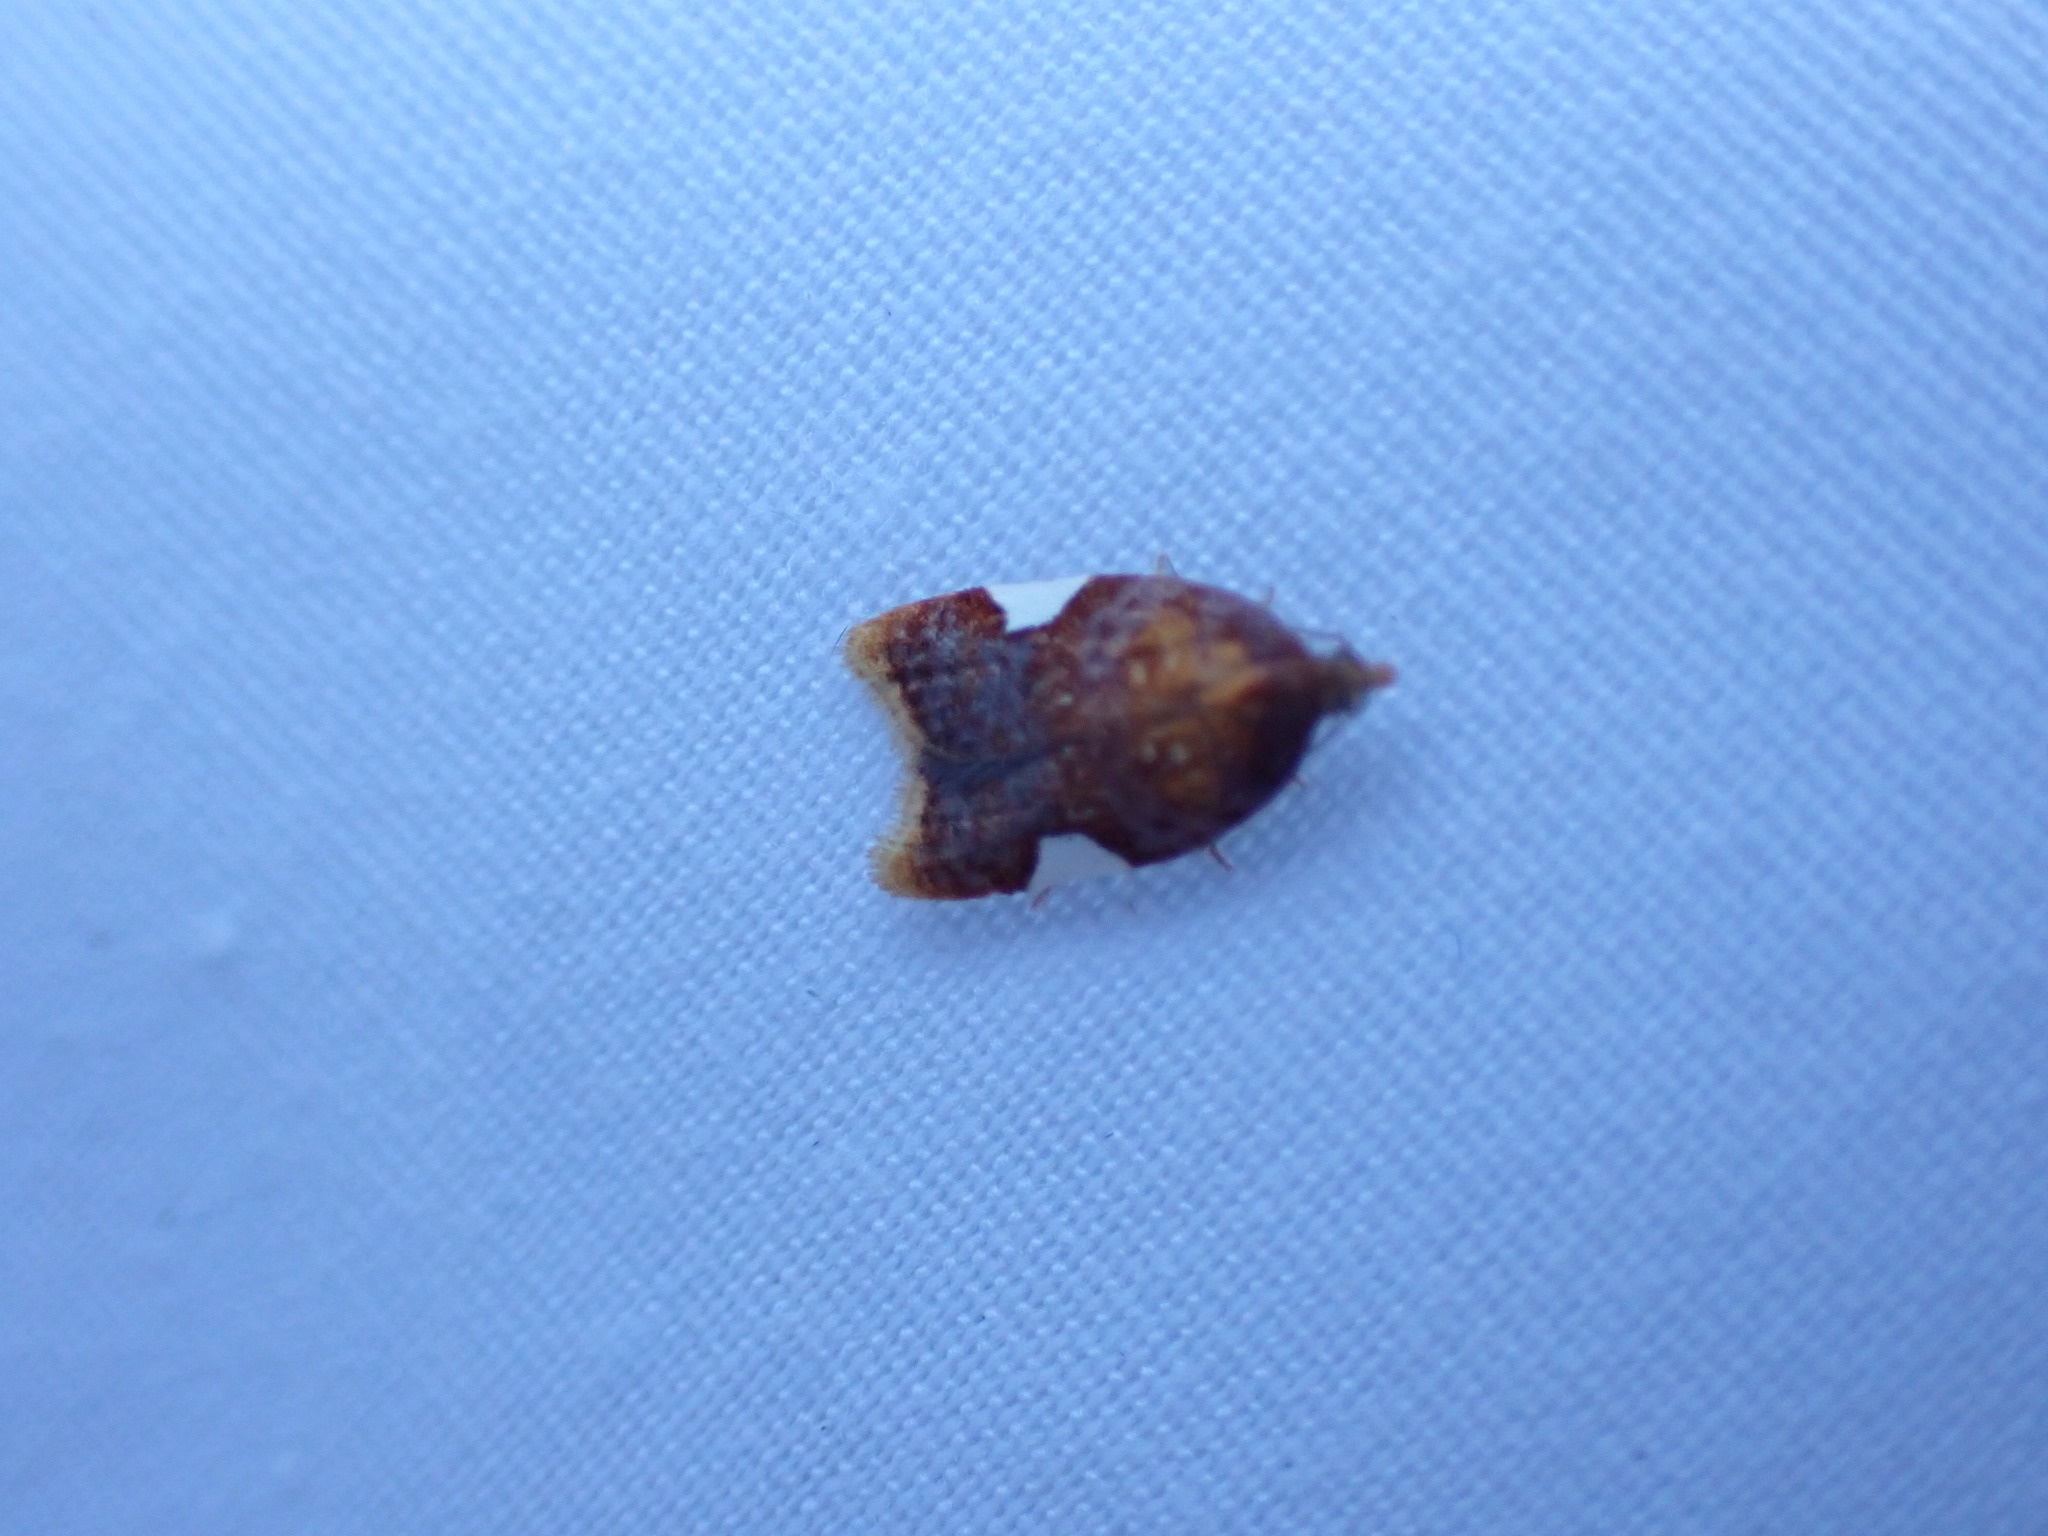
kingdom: Animalia
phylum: Arthropoda
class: Insecta
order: Lepidoptera
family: Tortricidae
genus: Acleris
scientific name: Acleris holmiana
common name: Golden leafroller moth
